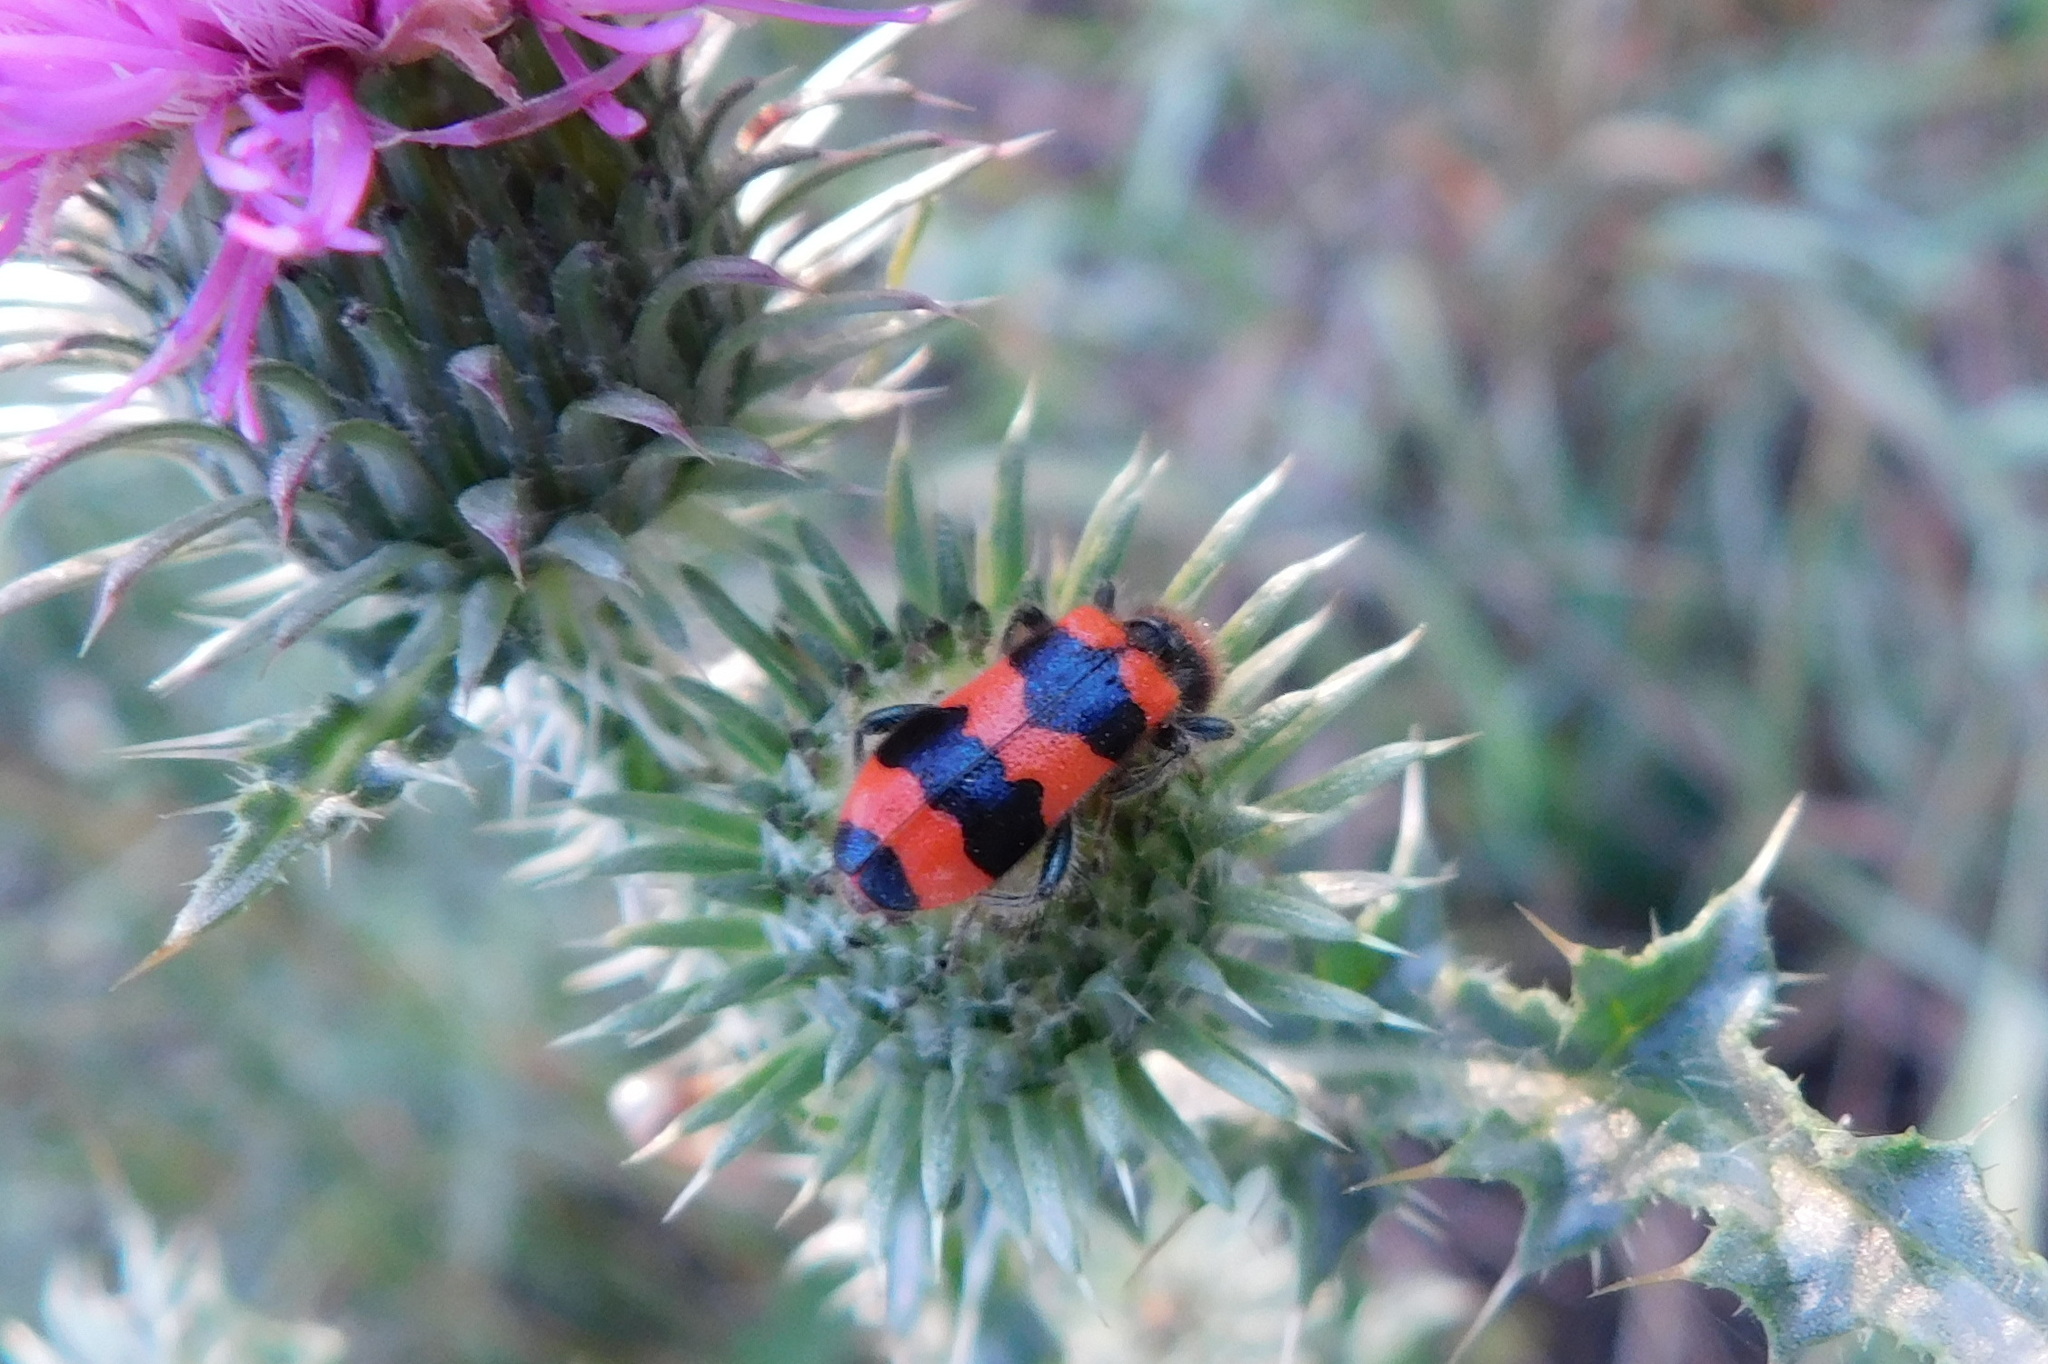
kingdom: Animalia
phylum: Arthropoda
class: Insecta
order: Coleoptera
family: Cleridae
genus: Trichodes
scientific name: Trichodes apiarius
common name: Bee-eating beetle
